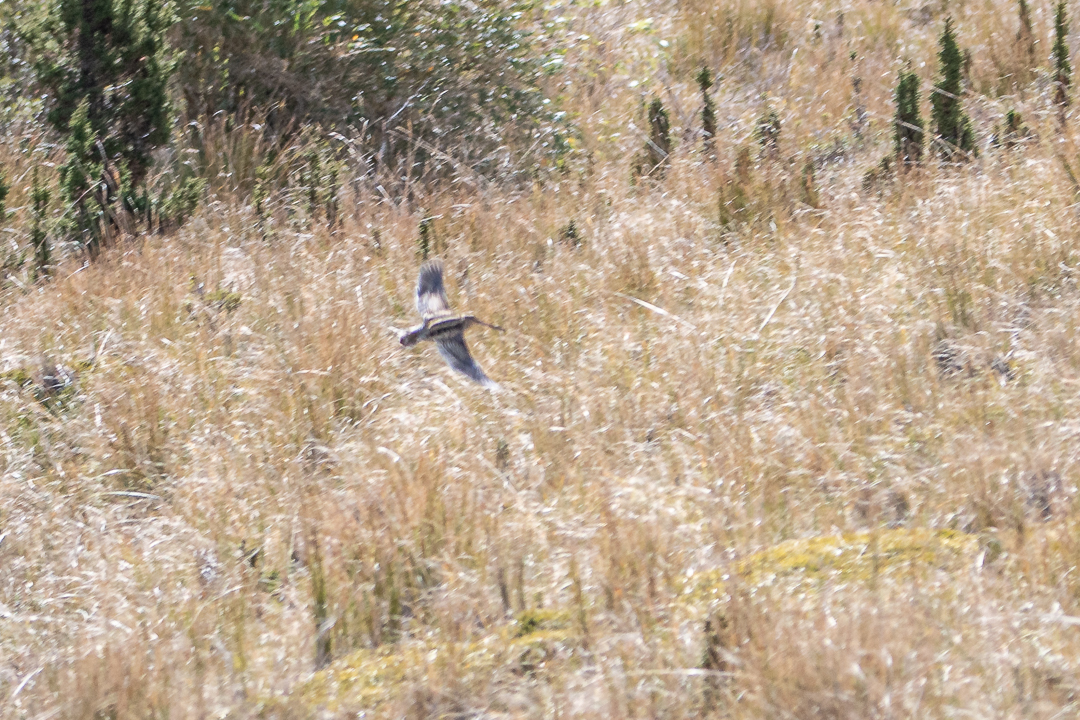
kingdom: Animalia
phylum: Chordata
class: Aves
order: Charadriiformes
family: Scolopacidae
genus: Gallinago
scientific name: Gallinago magellanica
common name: Magellanic snipe
